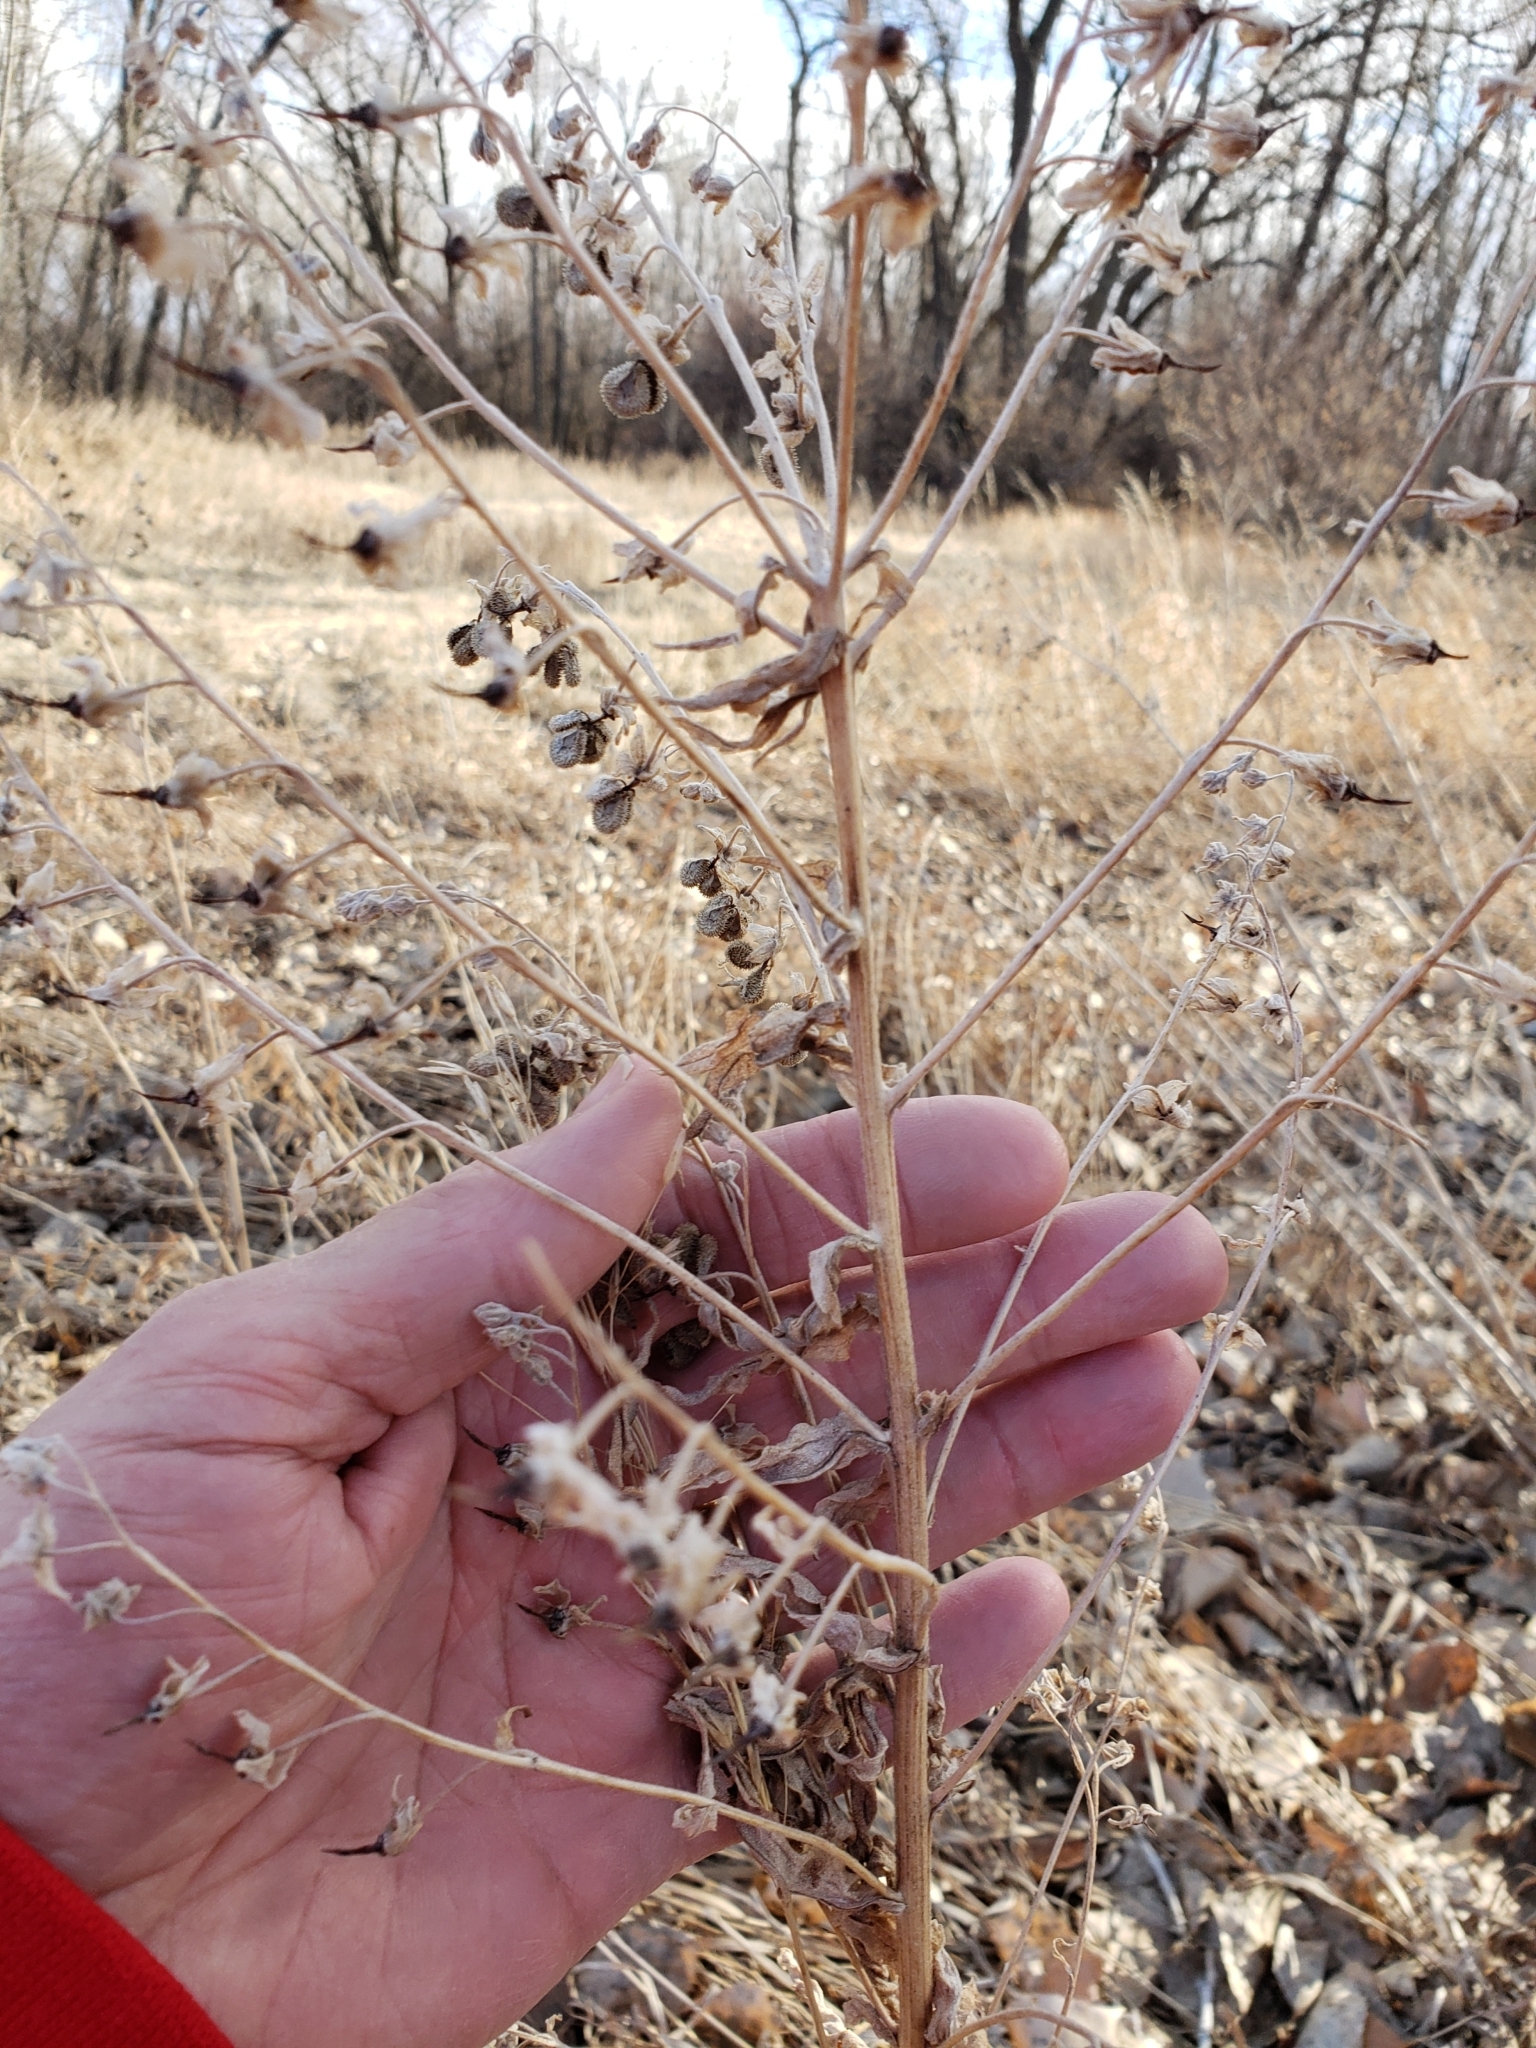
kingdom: Plantae
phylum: Tracheophyta
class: Magnoliopsida
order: Boraginales
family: Boraginaceae
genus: Cynoglossum
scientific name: Cynoglossum officinale
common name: Hound's-tongue
